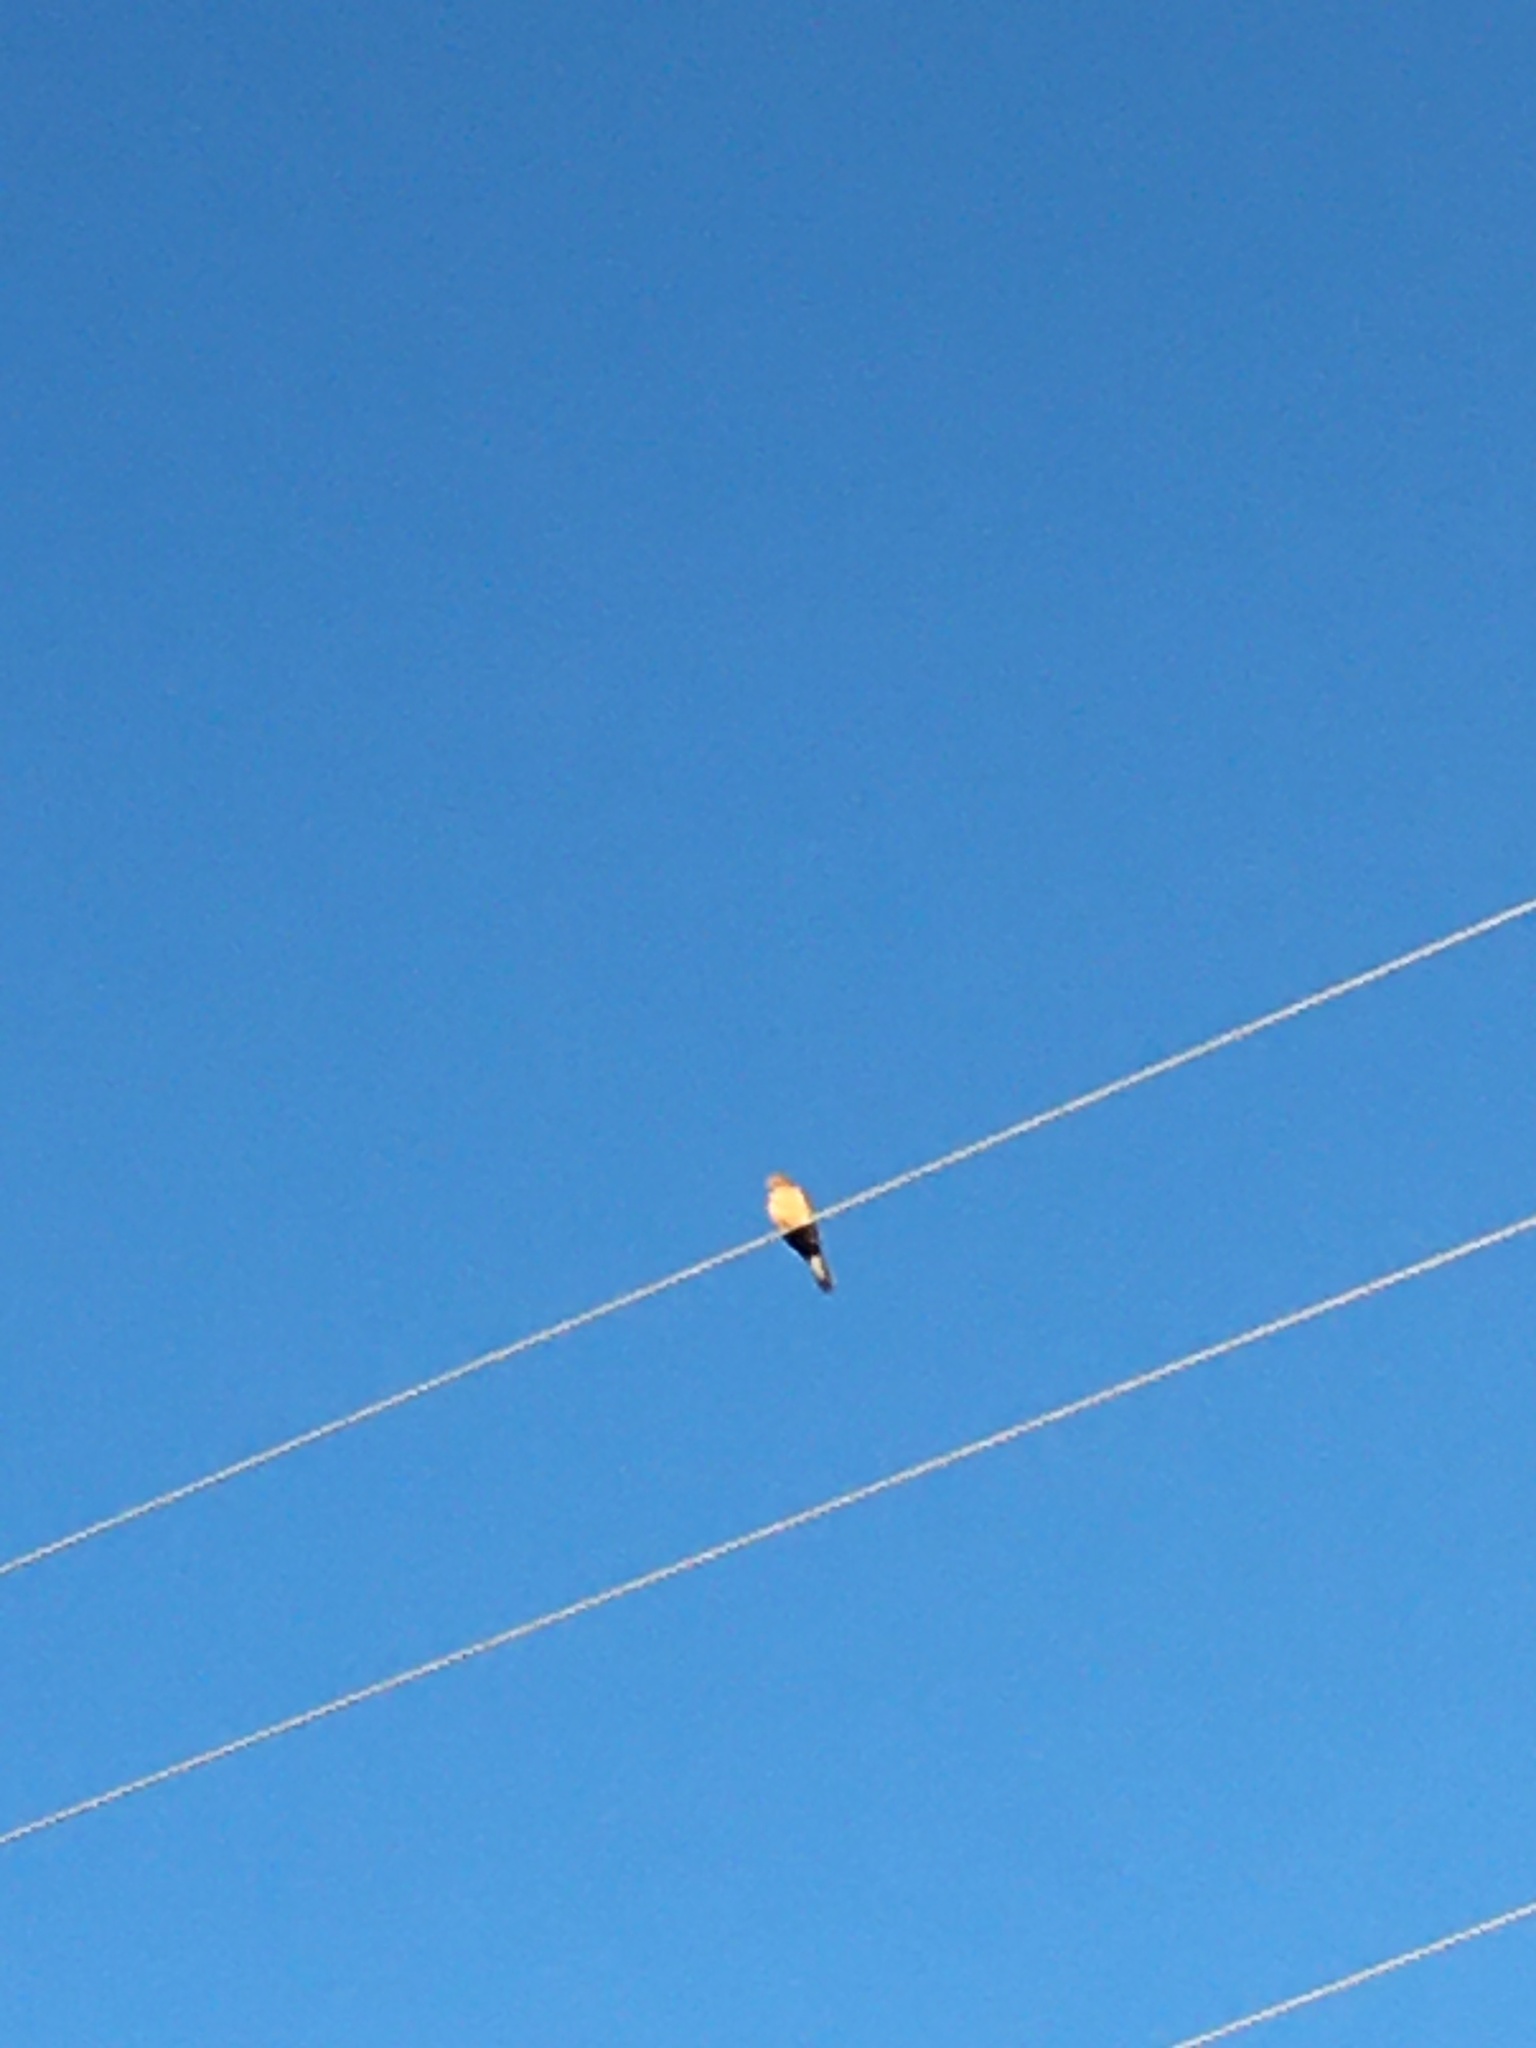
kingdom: Animalia
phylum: Chordata
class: Aves
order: Columbiformes
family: Columbidae
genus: Zenaida
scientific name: Zenaida macroura
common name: Mourning dove
